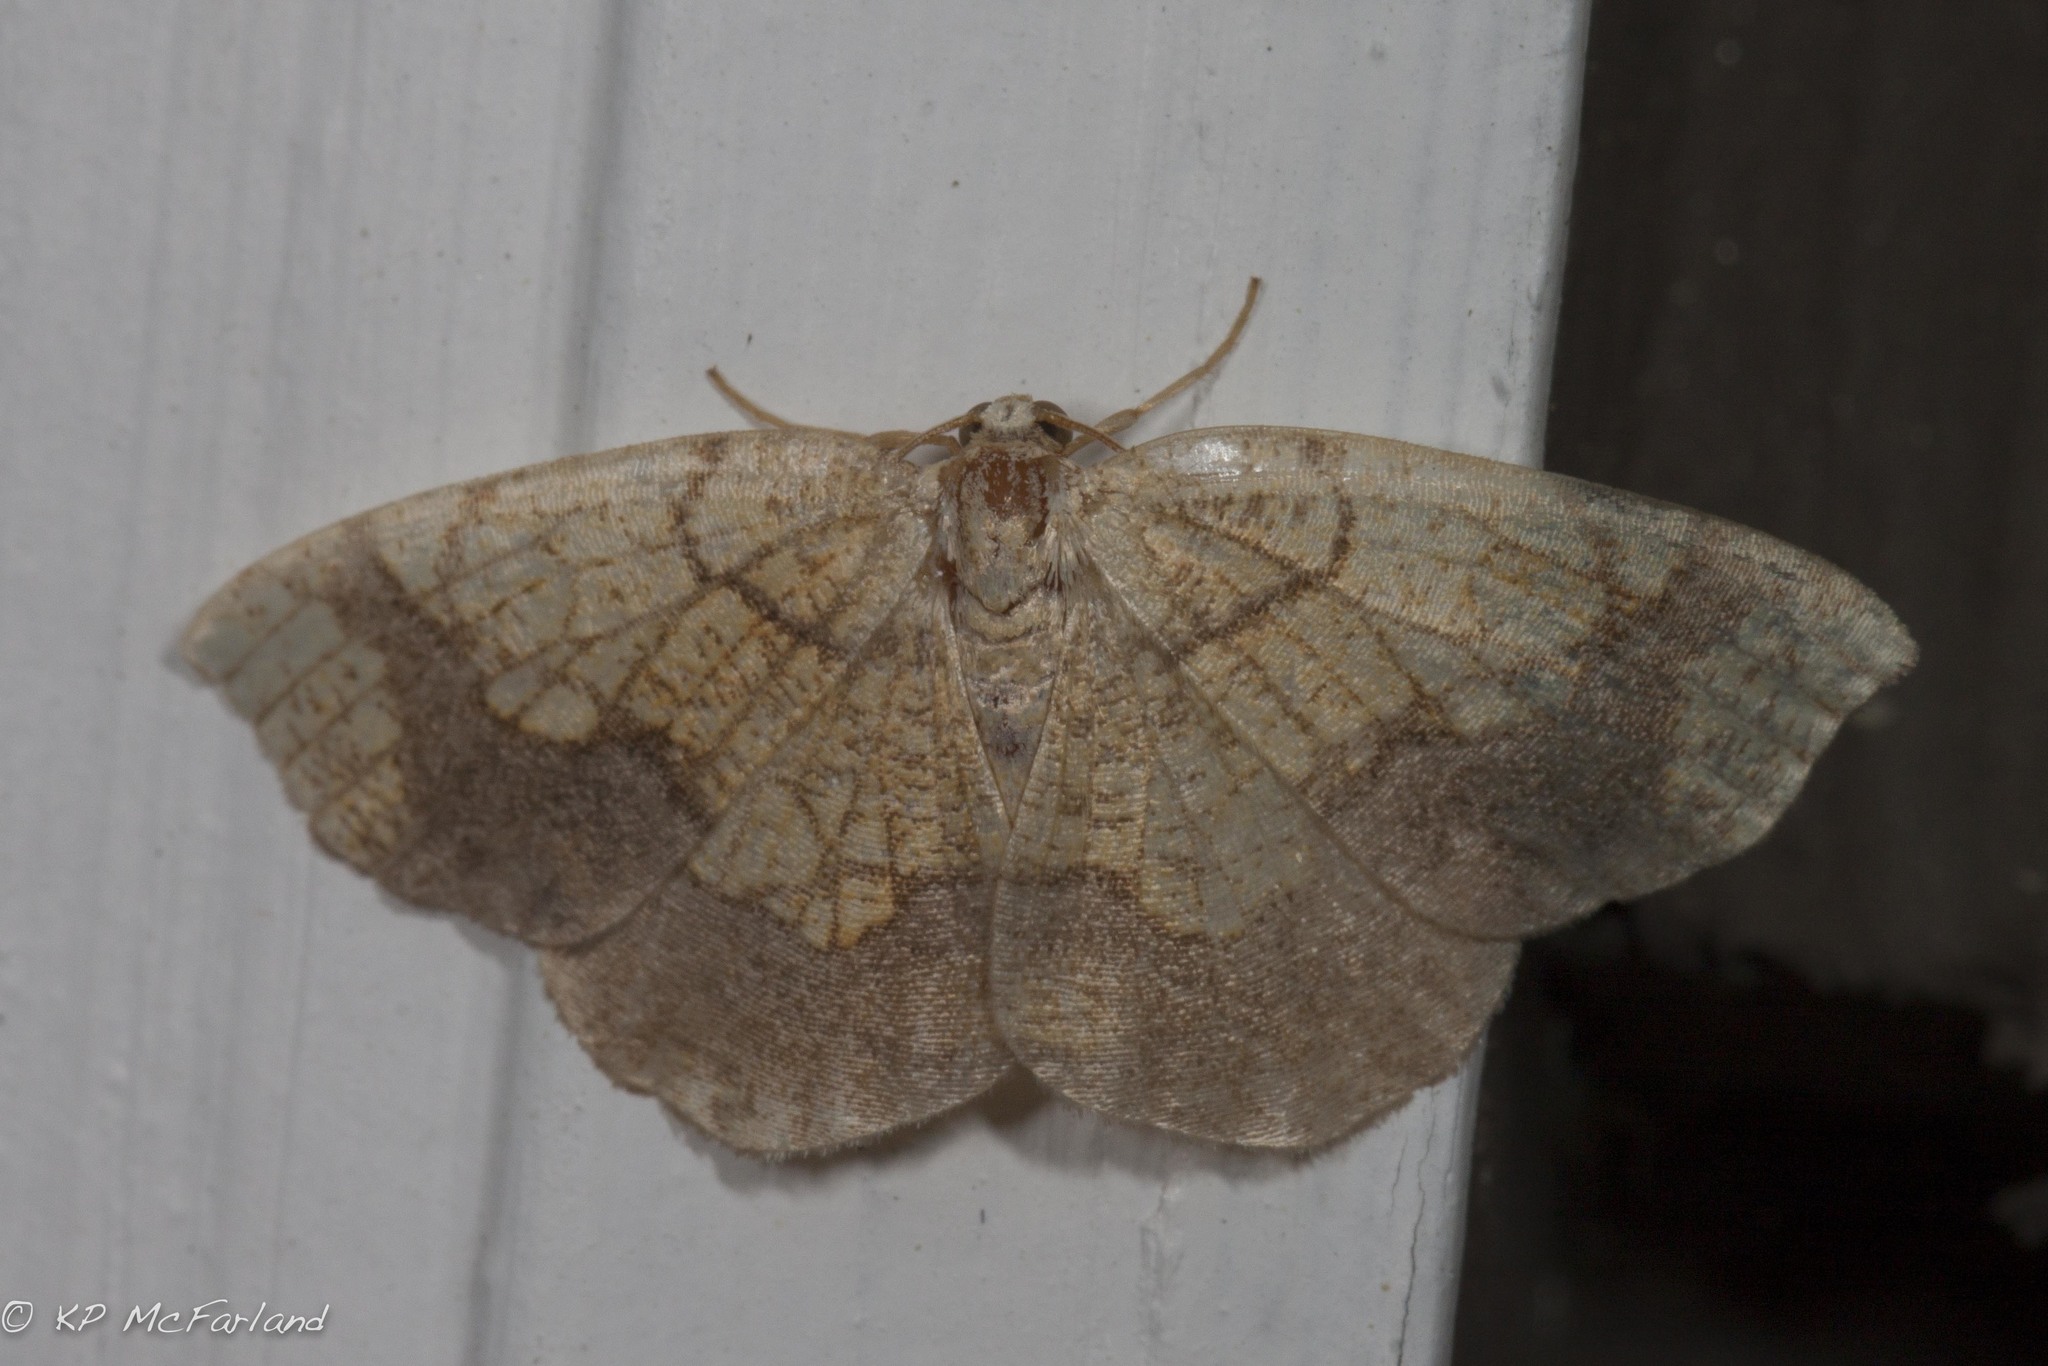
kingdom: Animalia
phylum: Arthropoda
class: Insecta
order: Lepidoptera
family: Geometridae
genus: Nematocampa
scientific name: Nematocampa resistaria
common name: Horned spanworm moth
